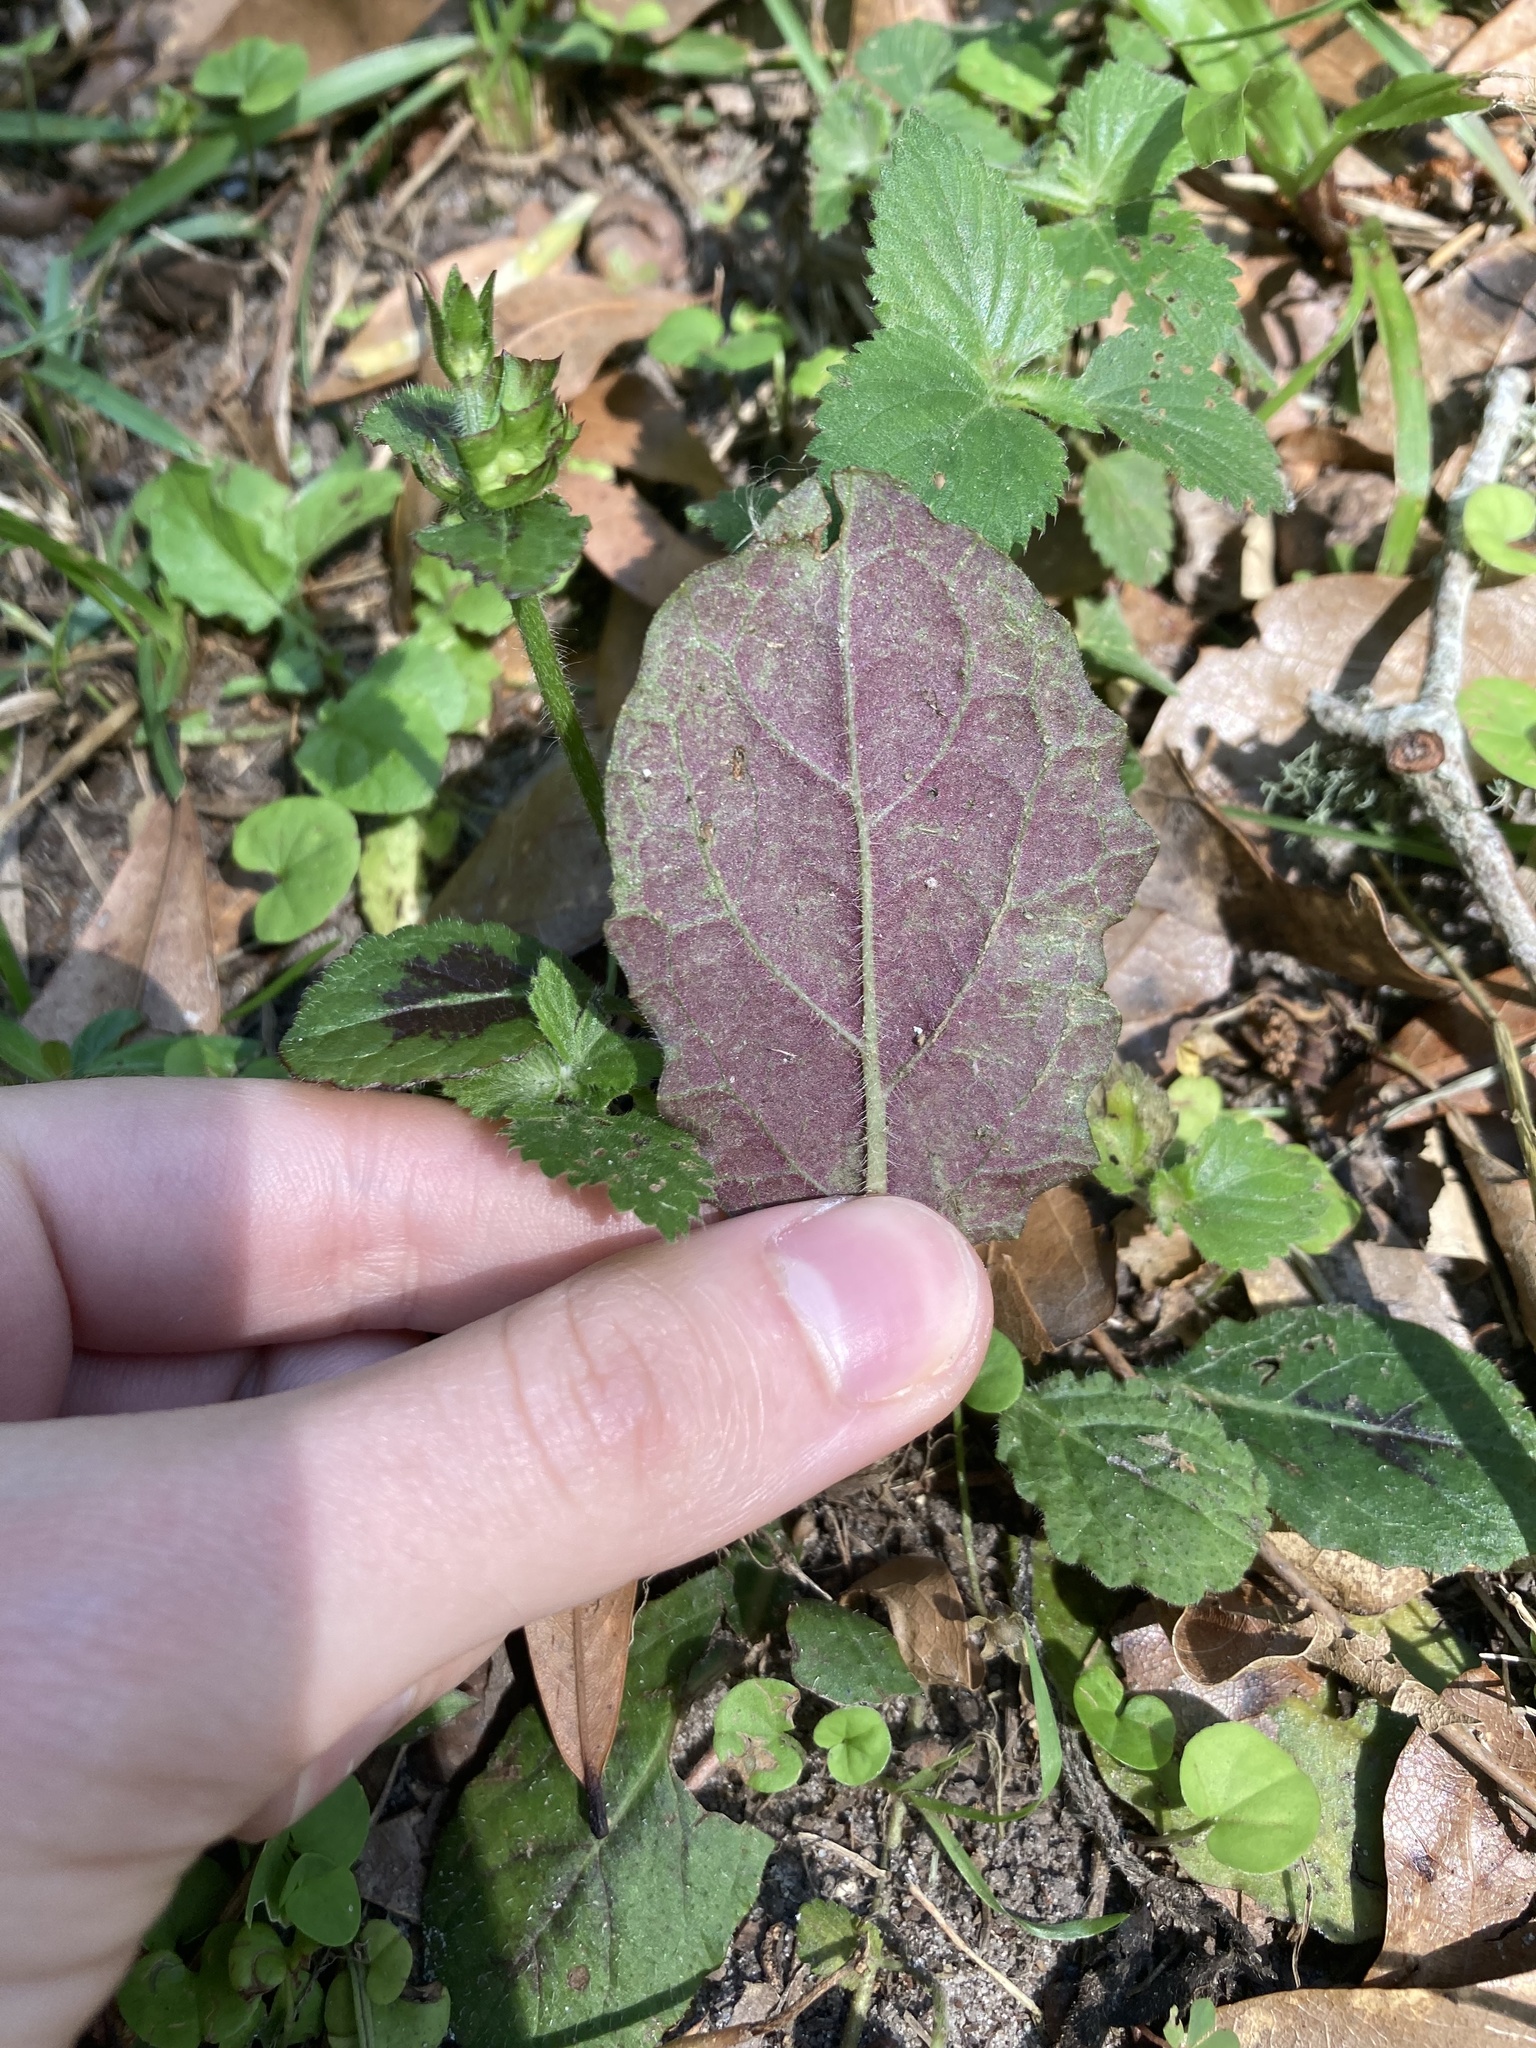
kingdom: Plantae
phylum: Tracheophyta
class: Magnoliopsida
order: Lamiales
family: Lamiaceae
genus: Salvia
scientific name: Salvia lyrata
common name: Cancerweed
